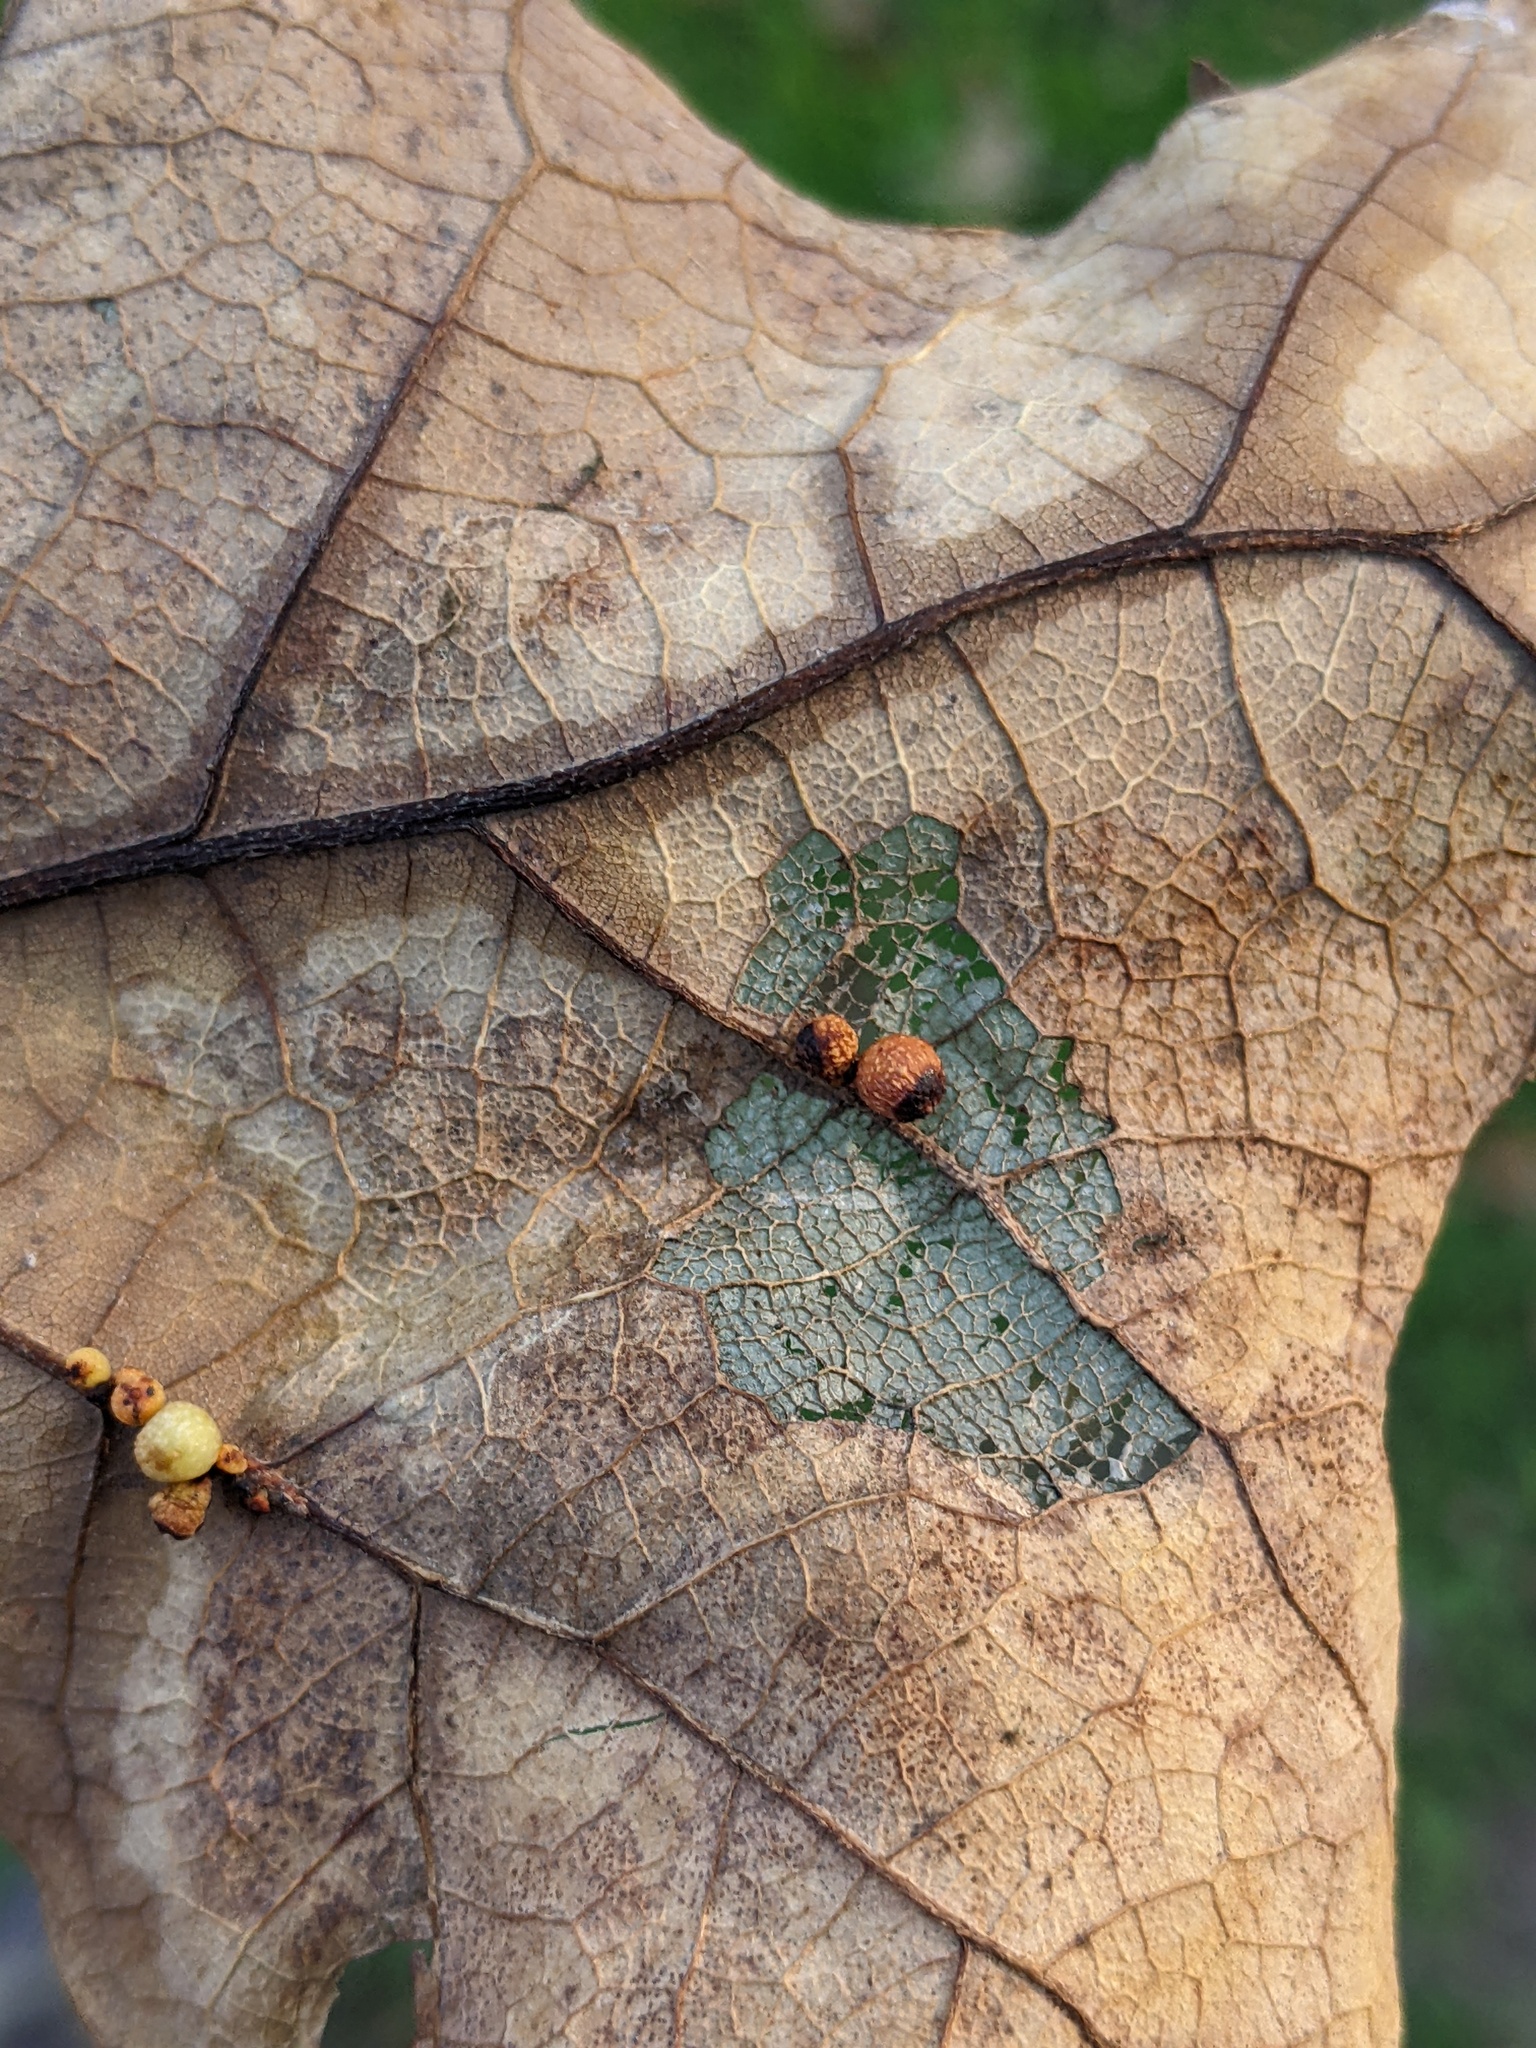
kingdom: Animalia
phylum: Arthropoda
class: Insecta
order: Hymenoptera
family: Cynipidae
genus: Andricus
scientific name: Andricus lustrans
